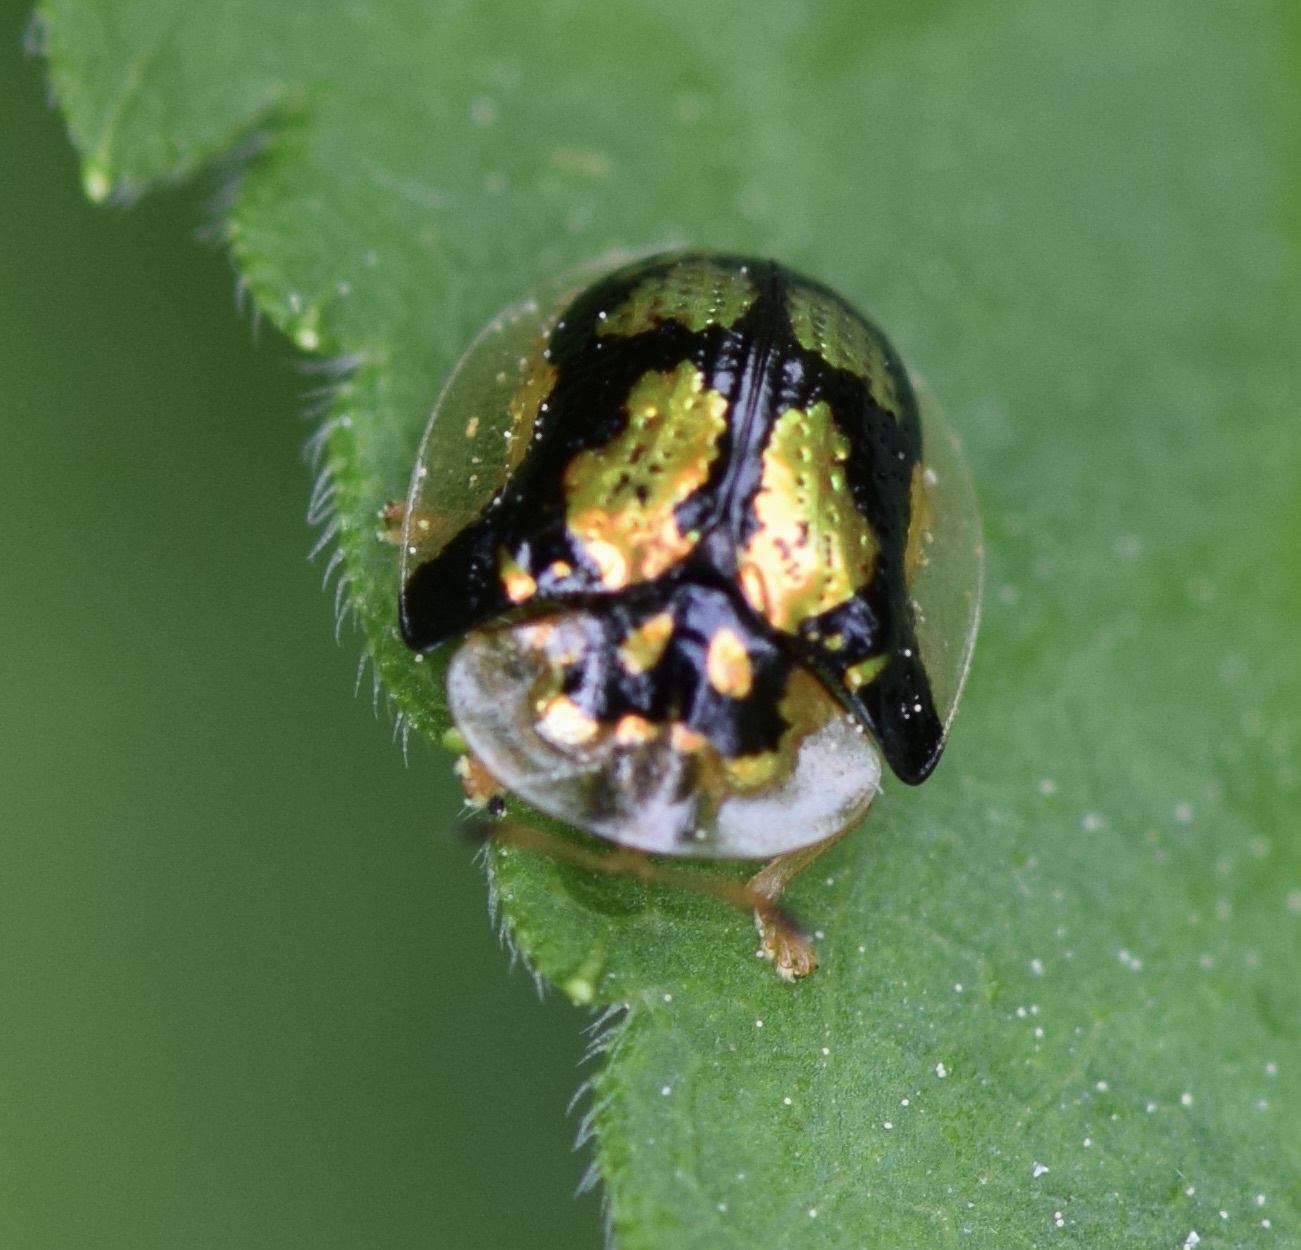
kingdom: Animalia
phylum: Arthropoda
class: Insecta
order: Coleoptera
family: Chrysomelidae
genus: Deloyala
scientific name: Deloyala guttata
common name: Mottled tortoise beetle
